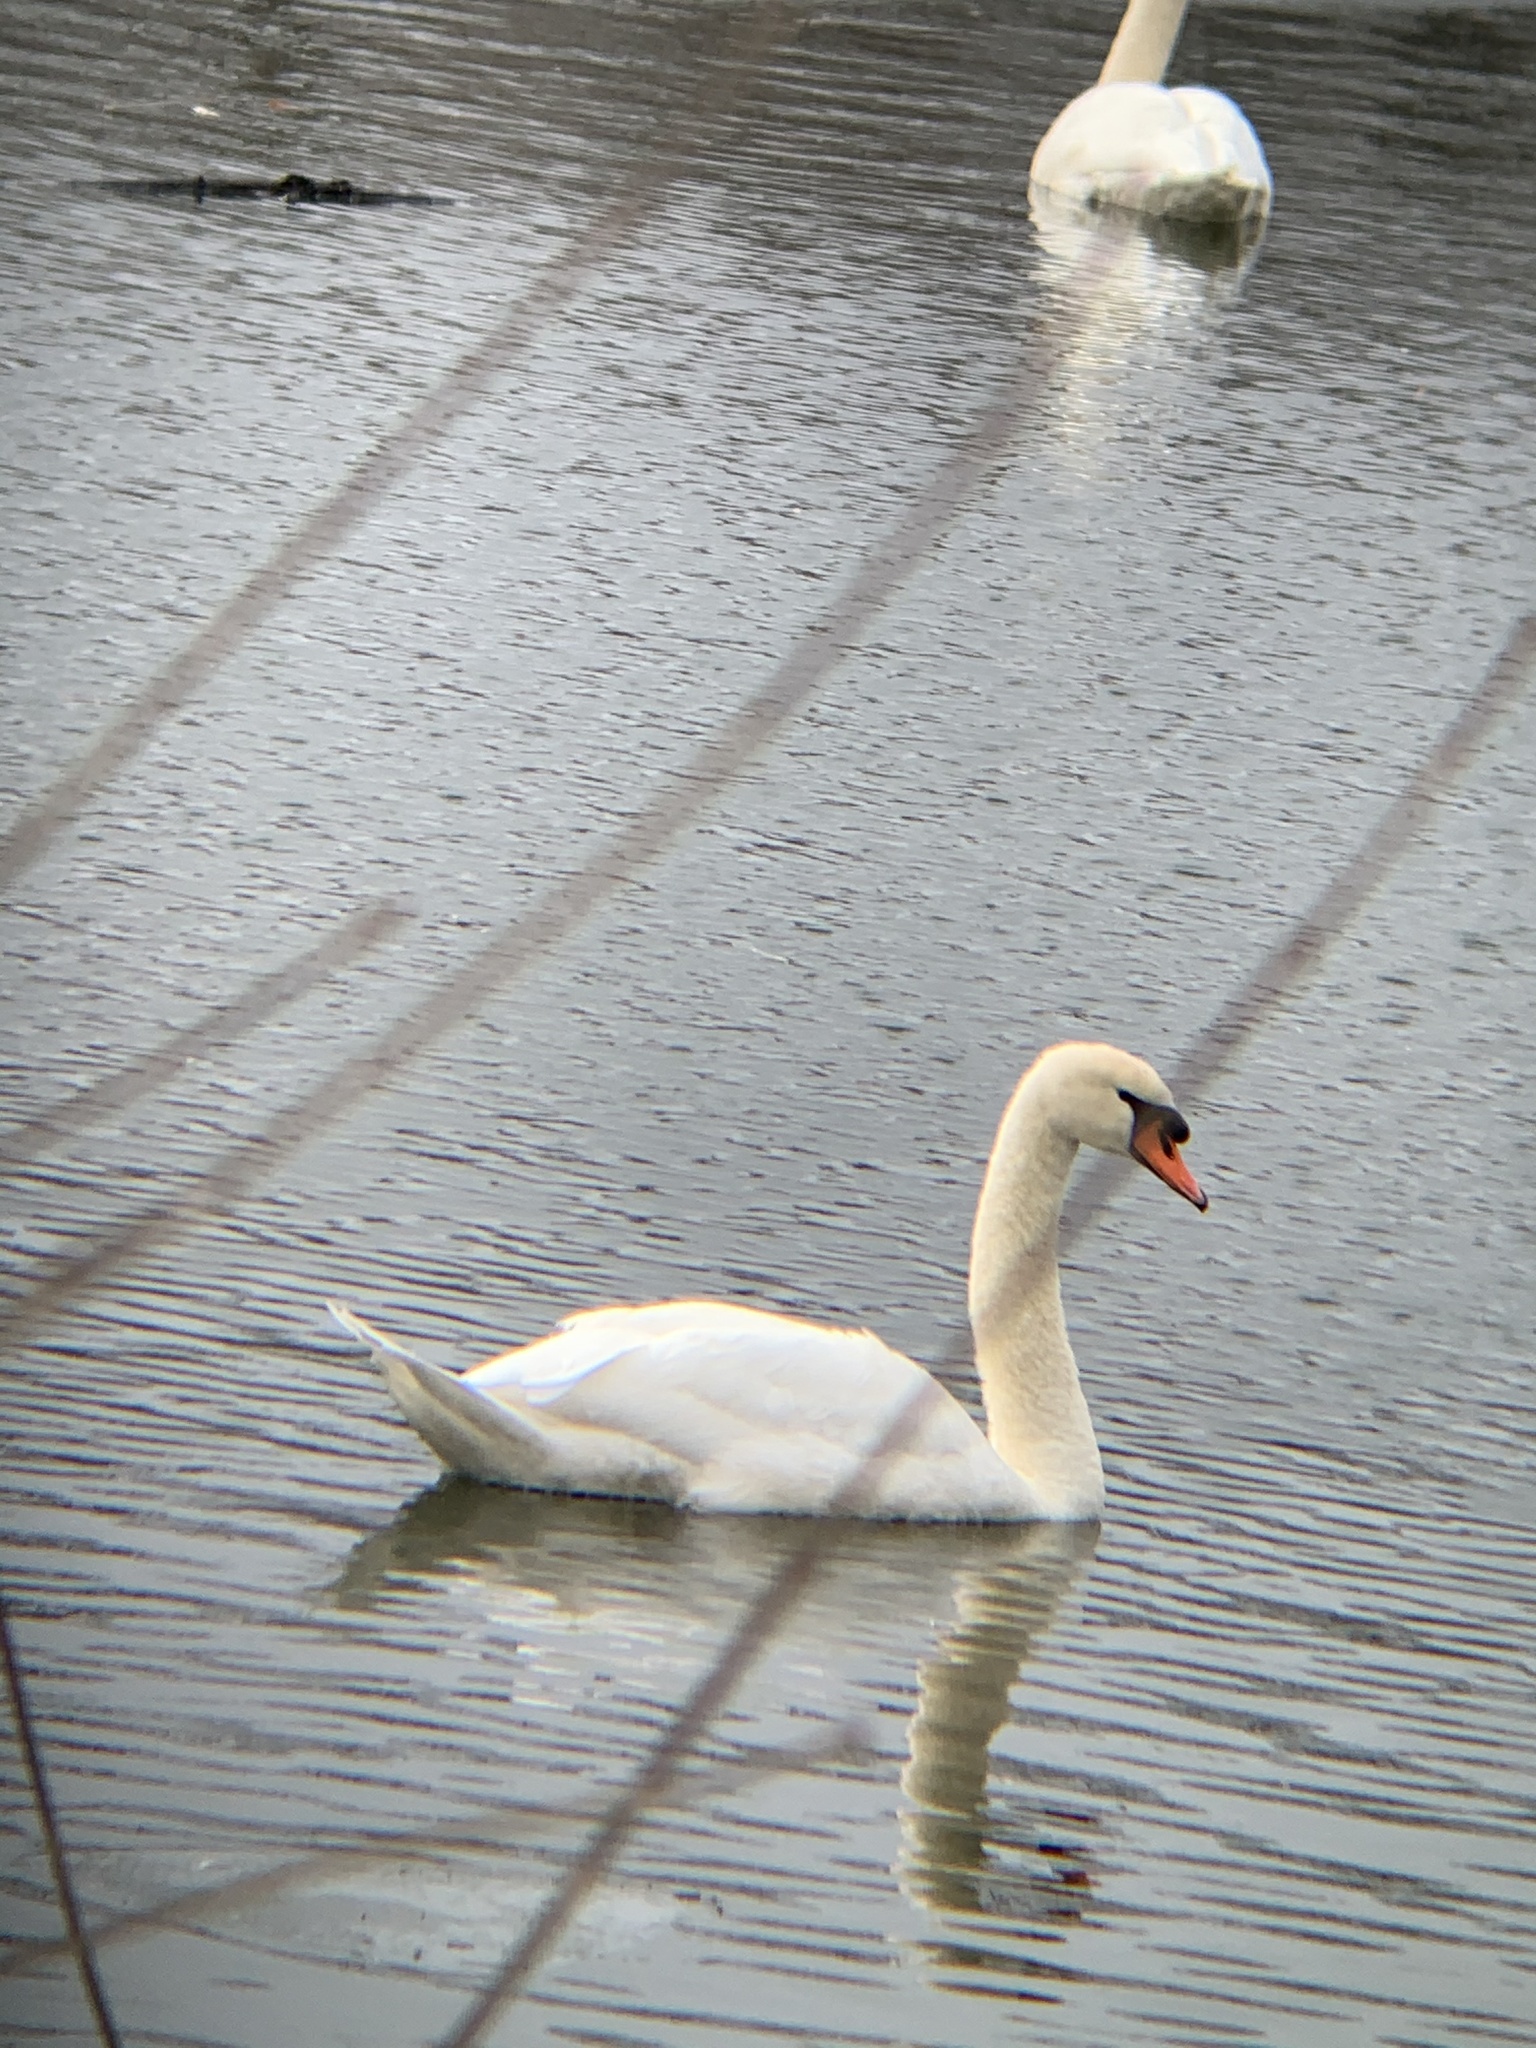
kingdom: Animalia
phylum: Chordata
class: Aves
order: Anseriformes
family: Anatidae
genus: Cygnus
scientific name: Cygnus olor
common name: Mute swan
